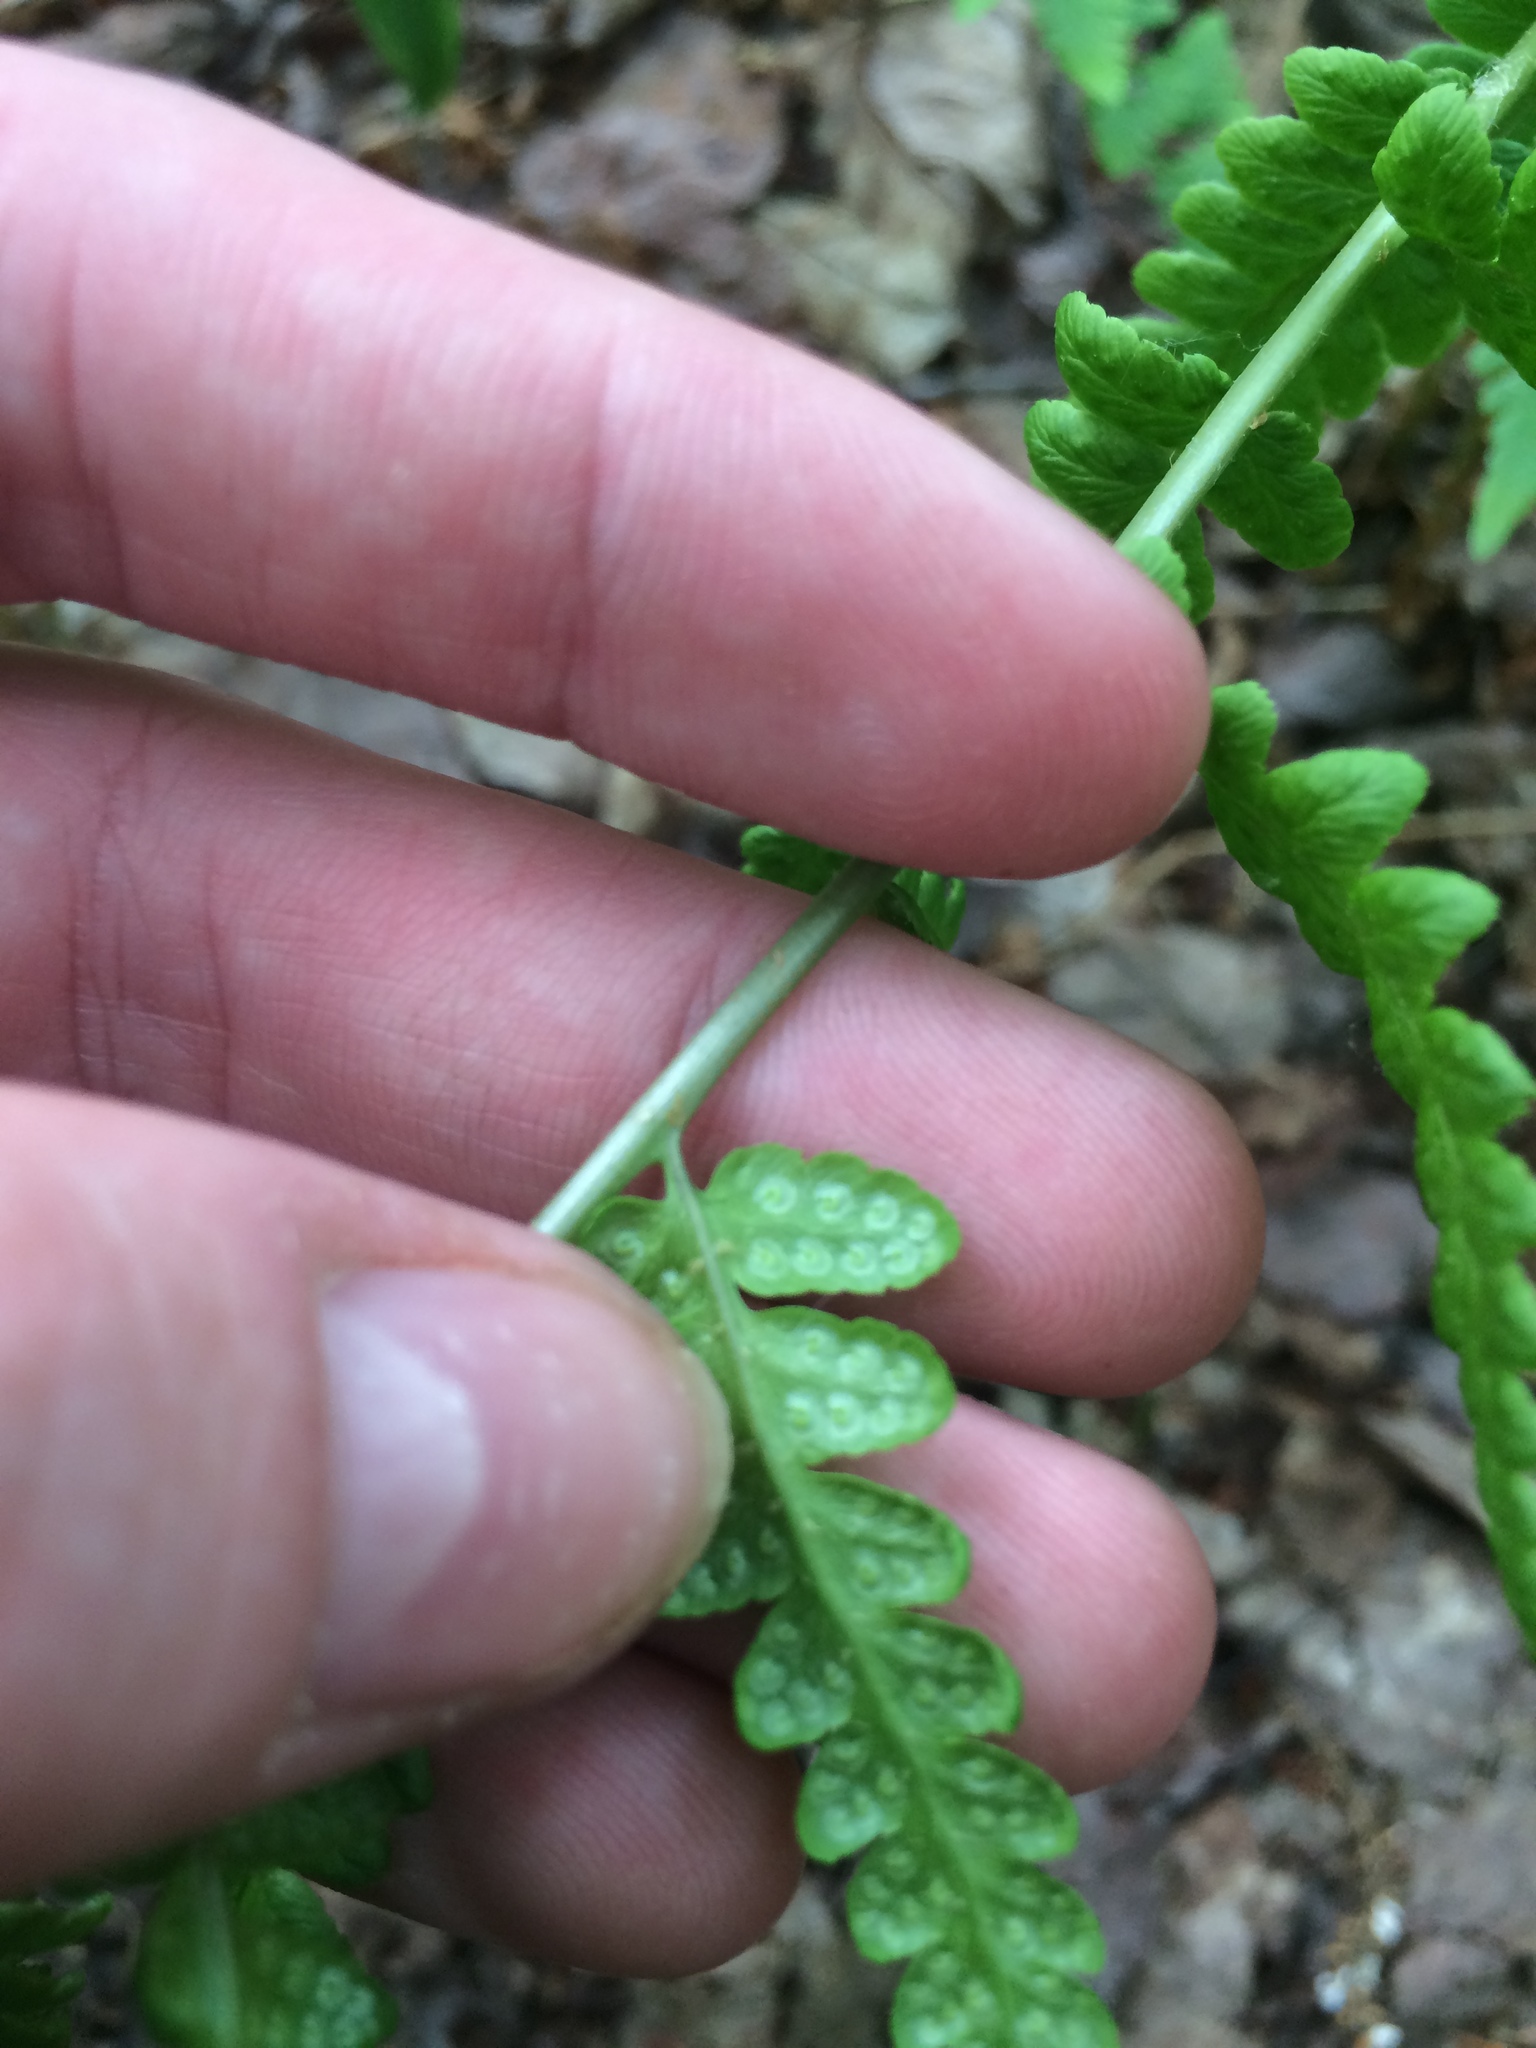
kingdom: Plantae
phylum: Tracheophyta
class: Polypodiopsida
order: Polypodiales
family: Dryopteridaceae
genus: Dryopteris
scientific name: Dryopteris cristata
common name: Crested wood fern
